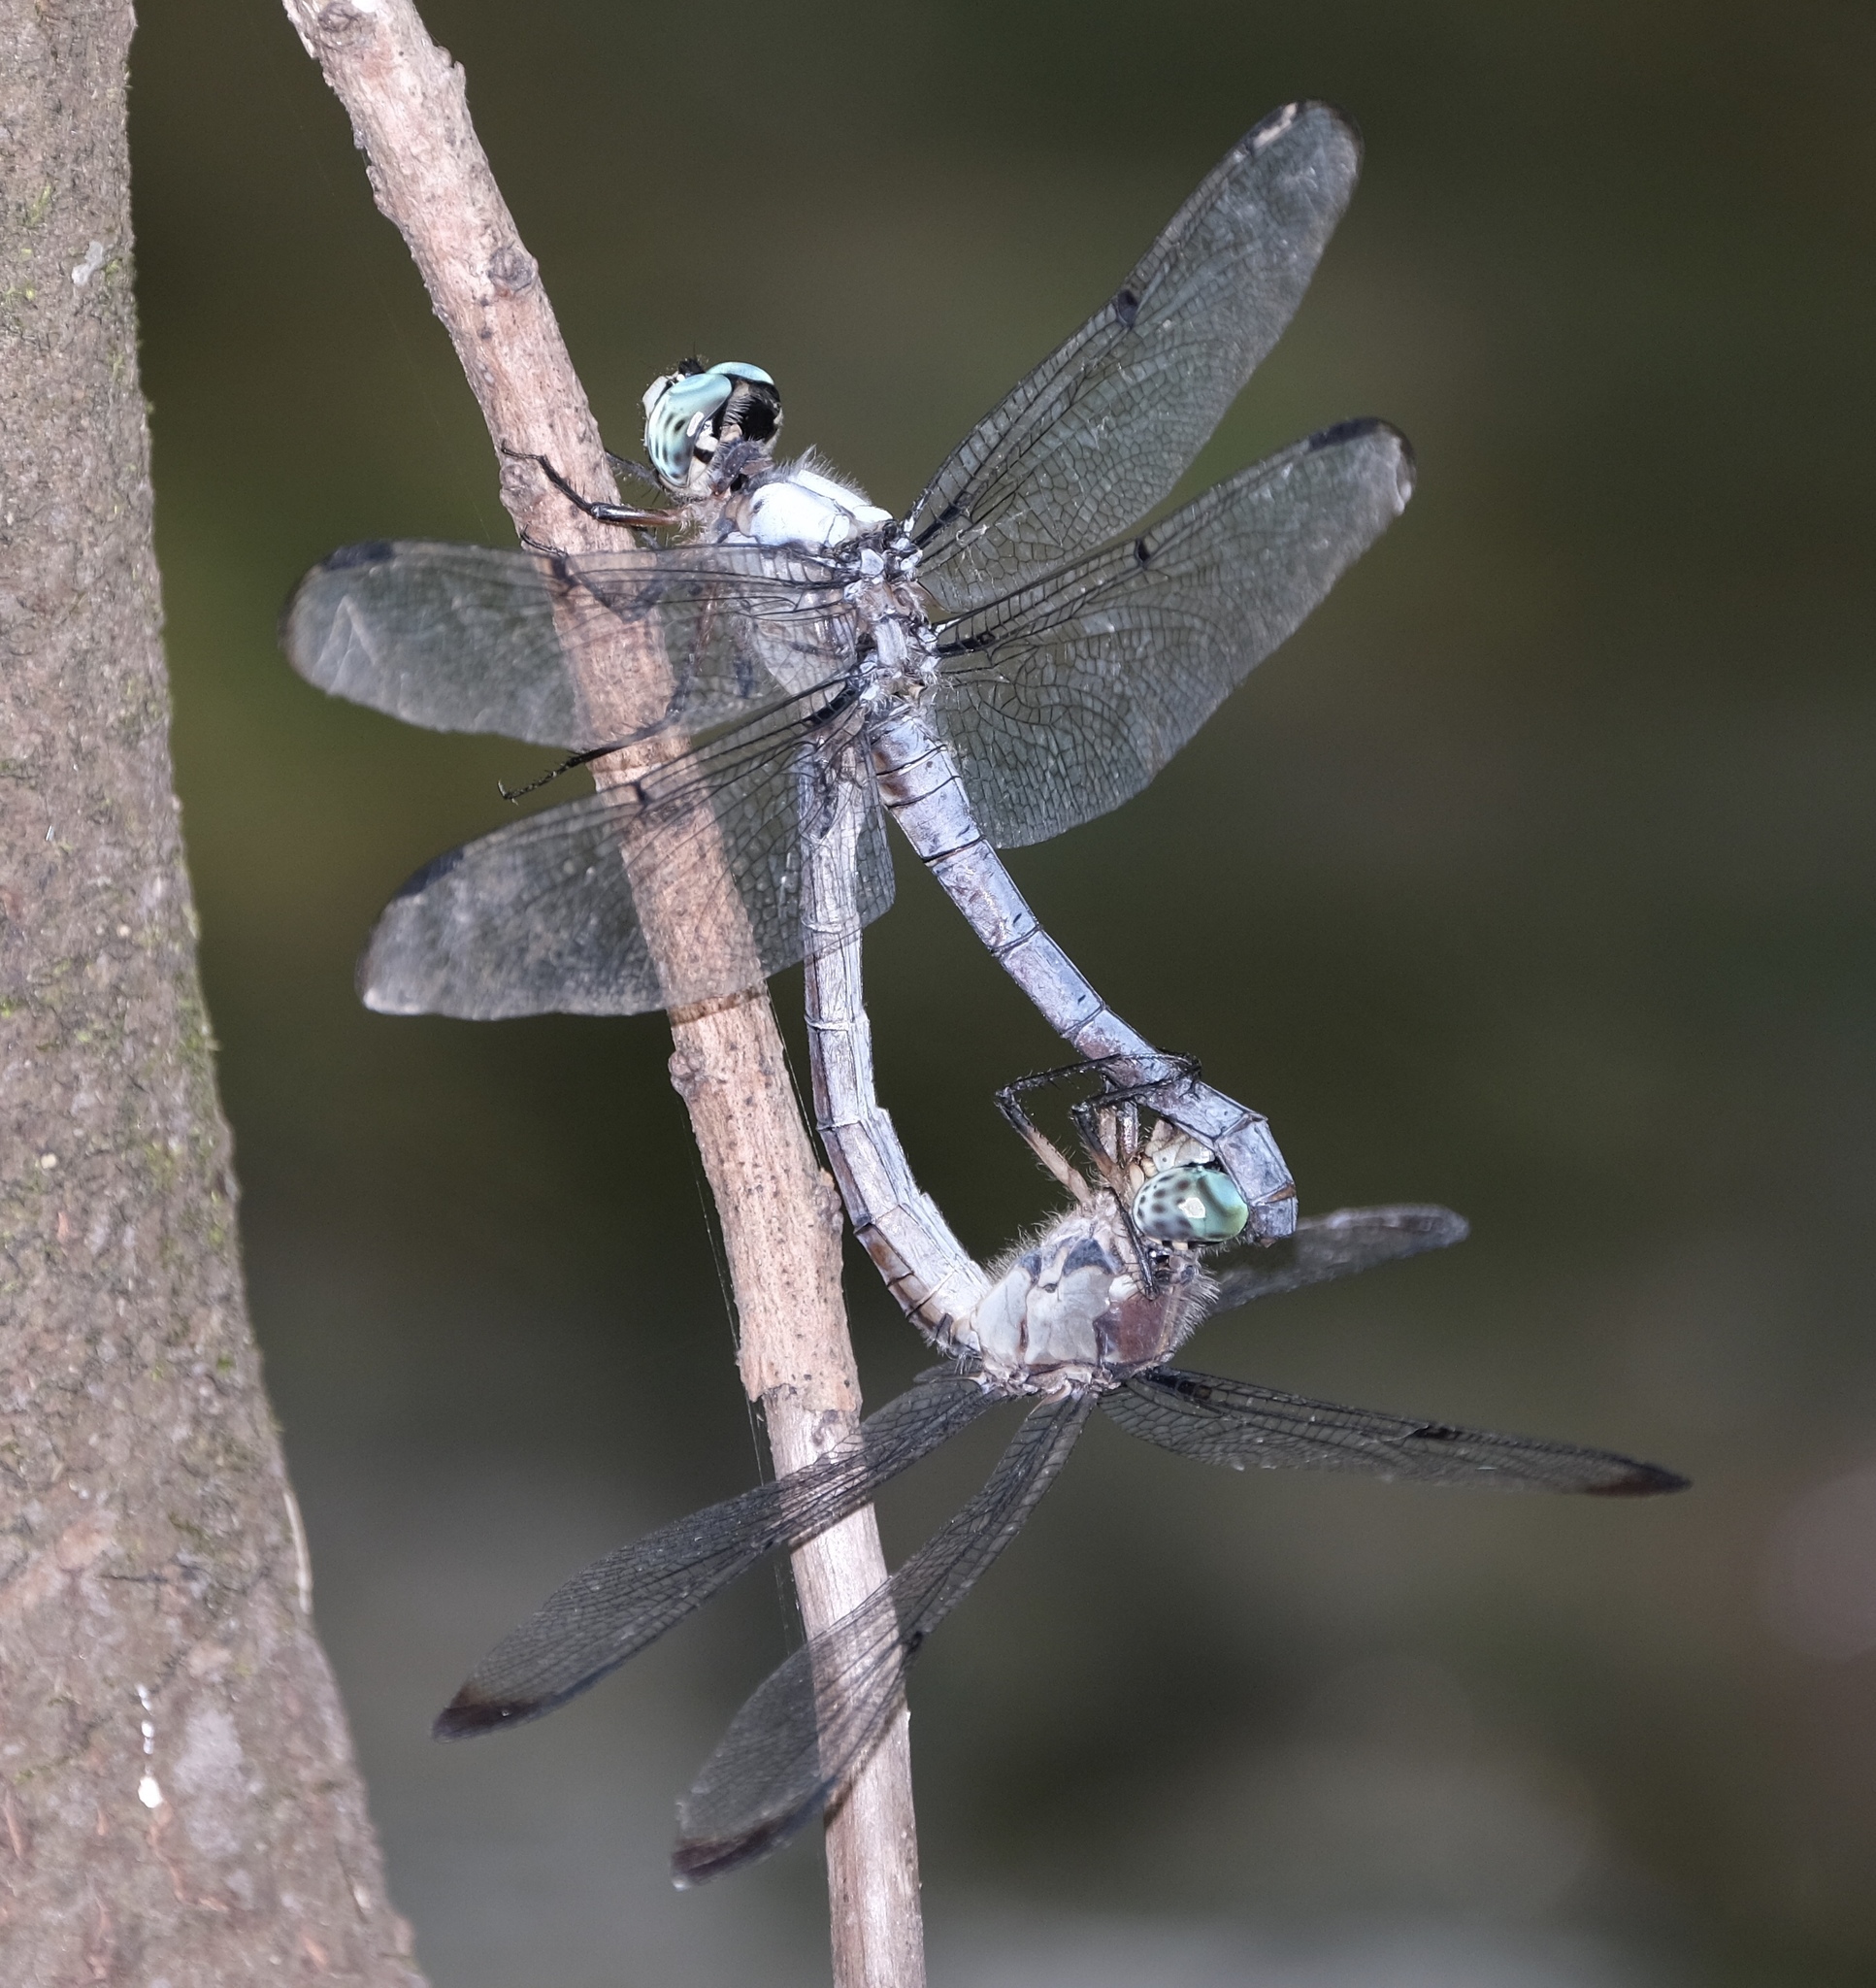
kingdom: Animalia
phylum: Arthropoda
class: Insecta
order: Odonata
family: Libellulidae
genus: Libellula
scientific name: Libellula vibrans
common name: Great blue skimmer
